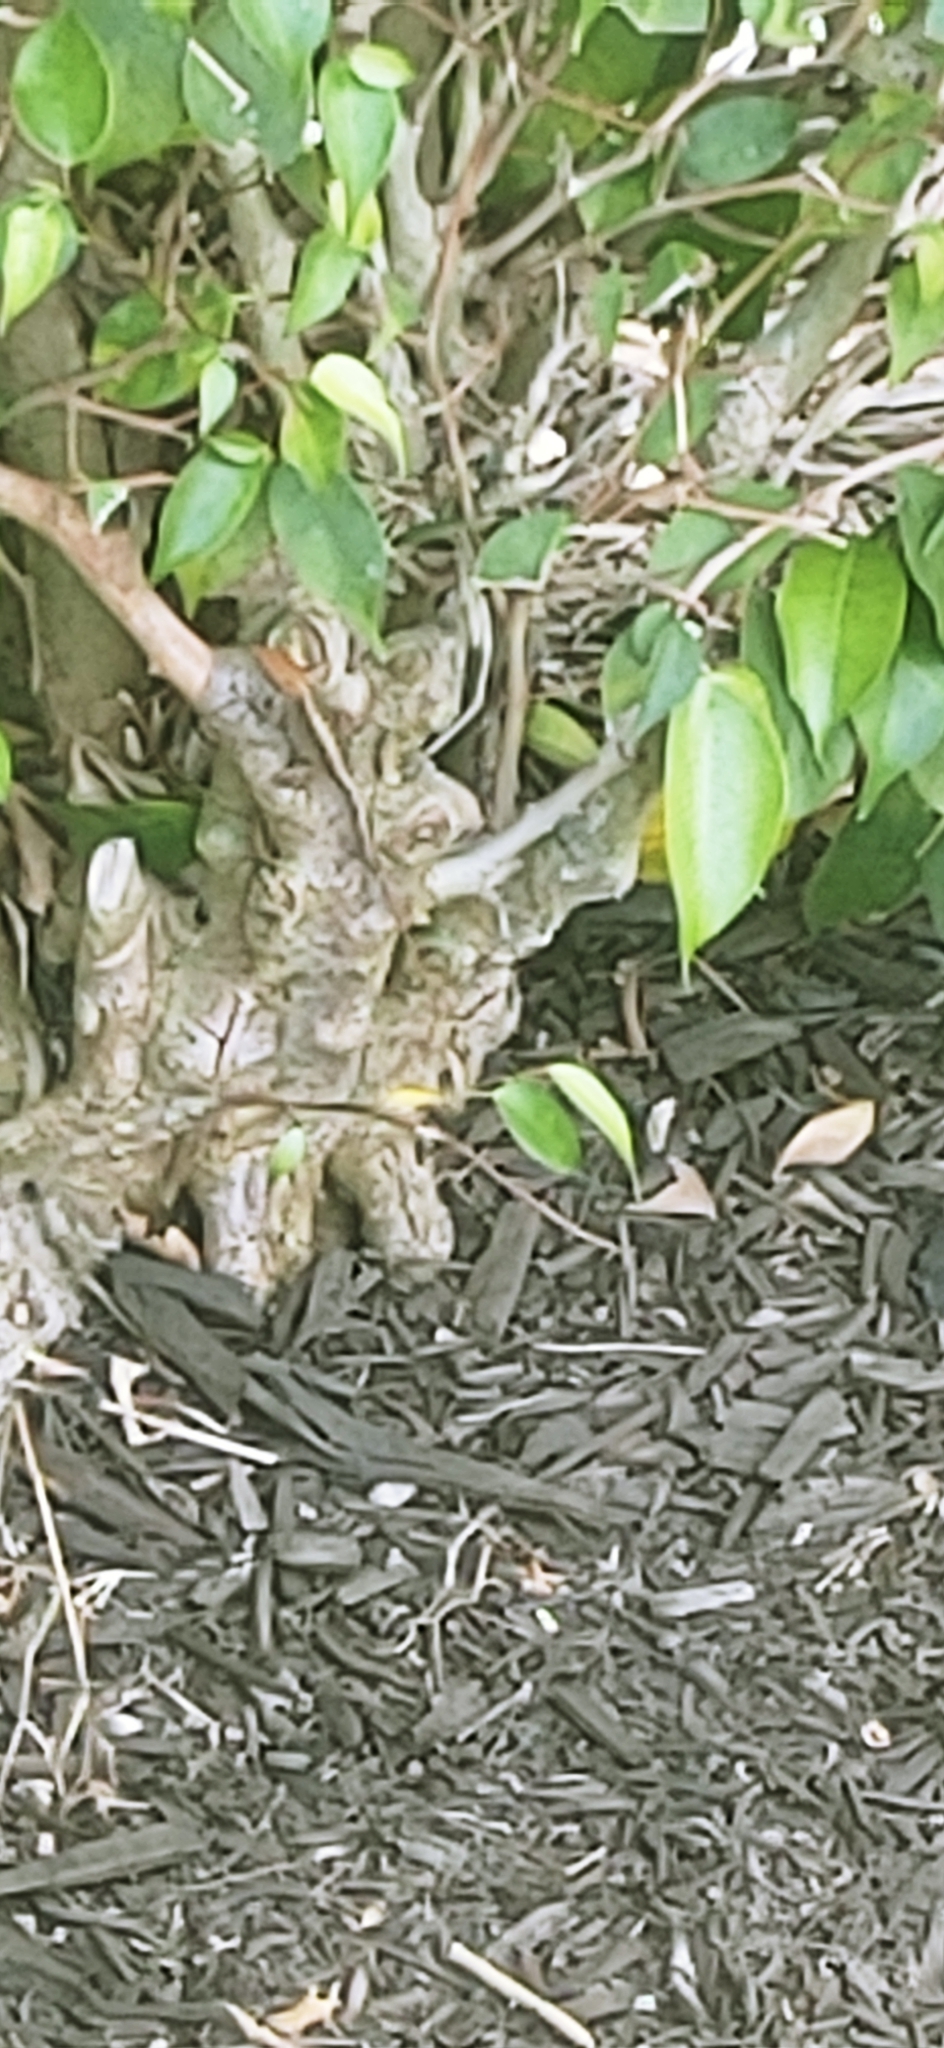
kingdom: Animalia
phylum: Chordata
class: Squamata
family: Dactyloidae
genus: Anolis
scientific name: Anolis sagrei
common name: Brown anole
